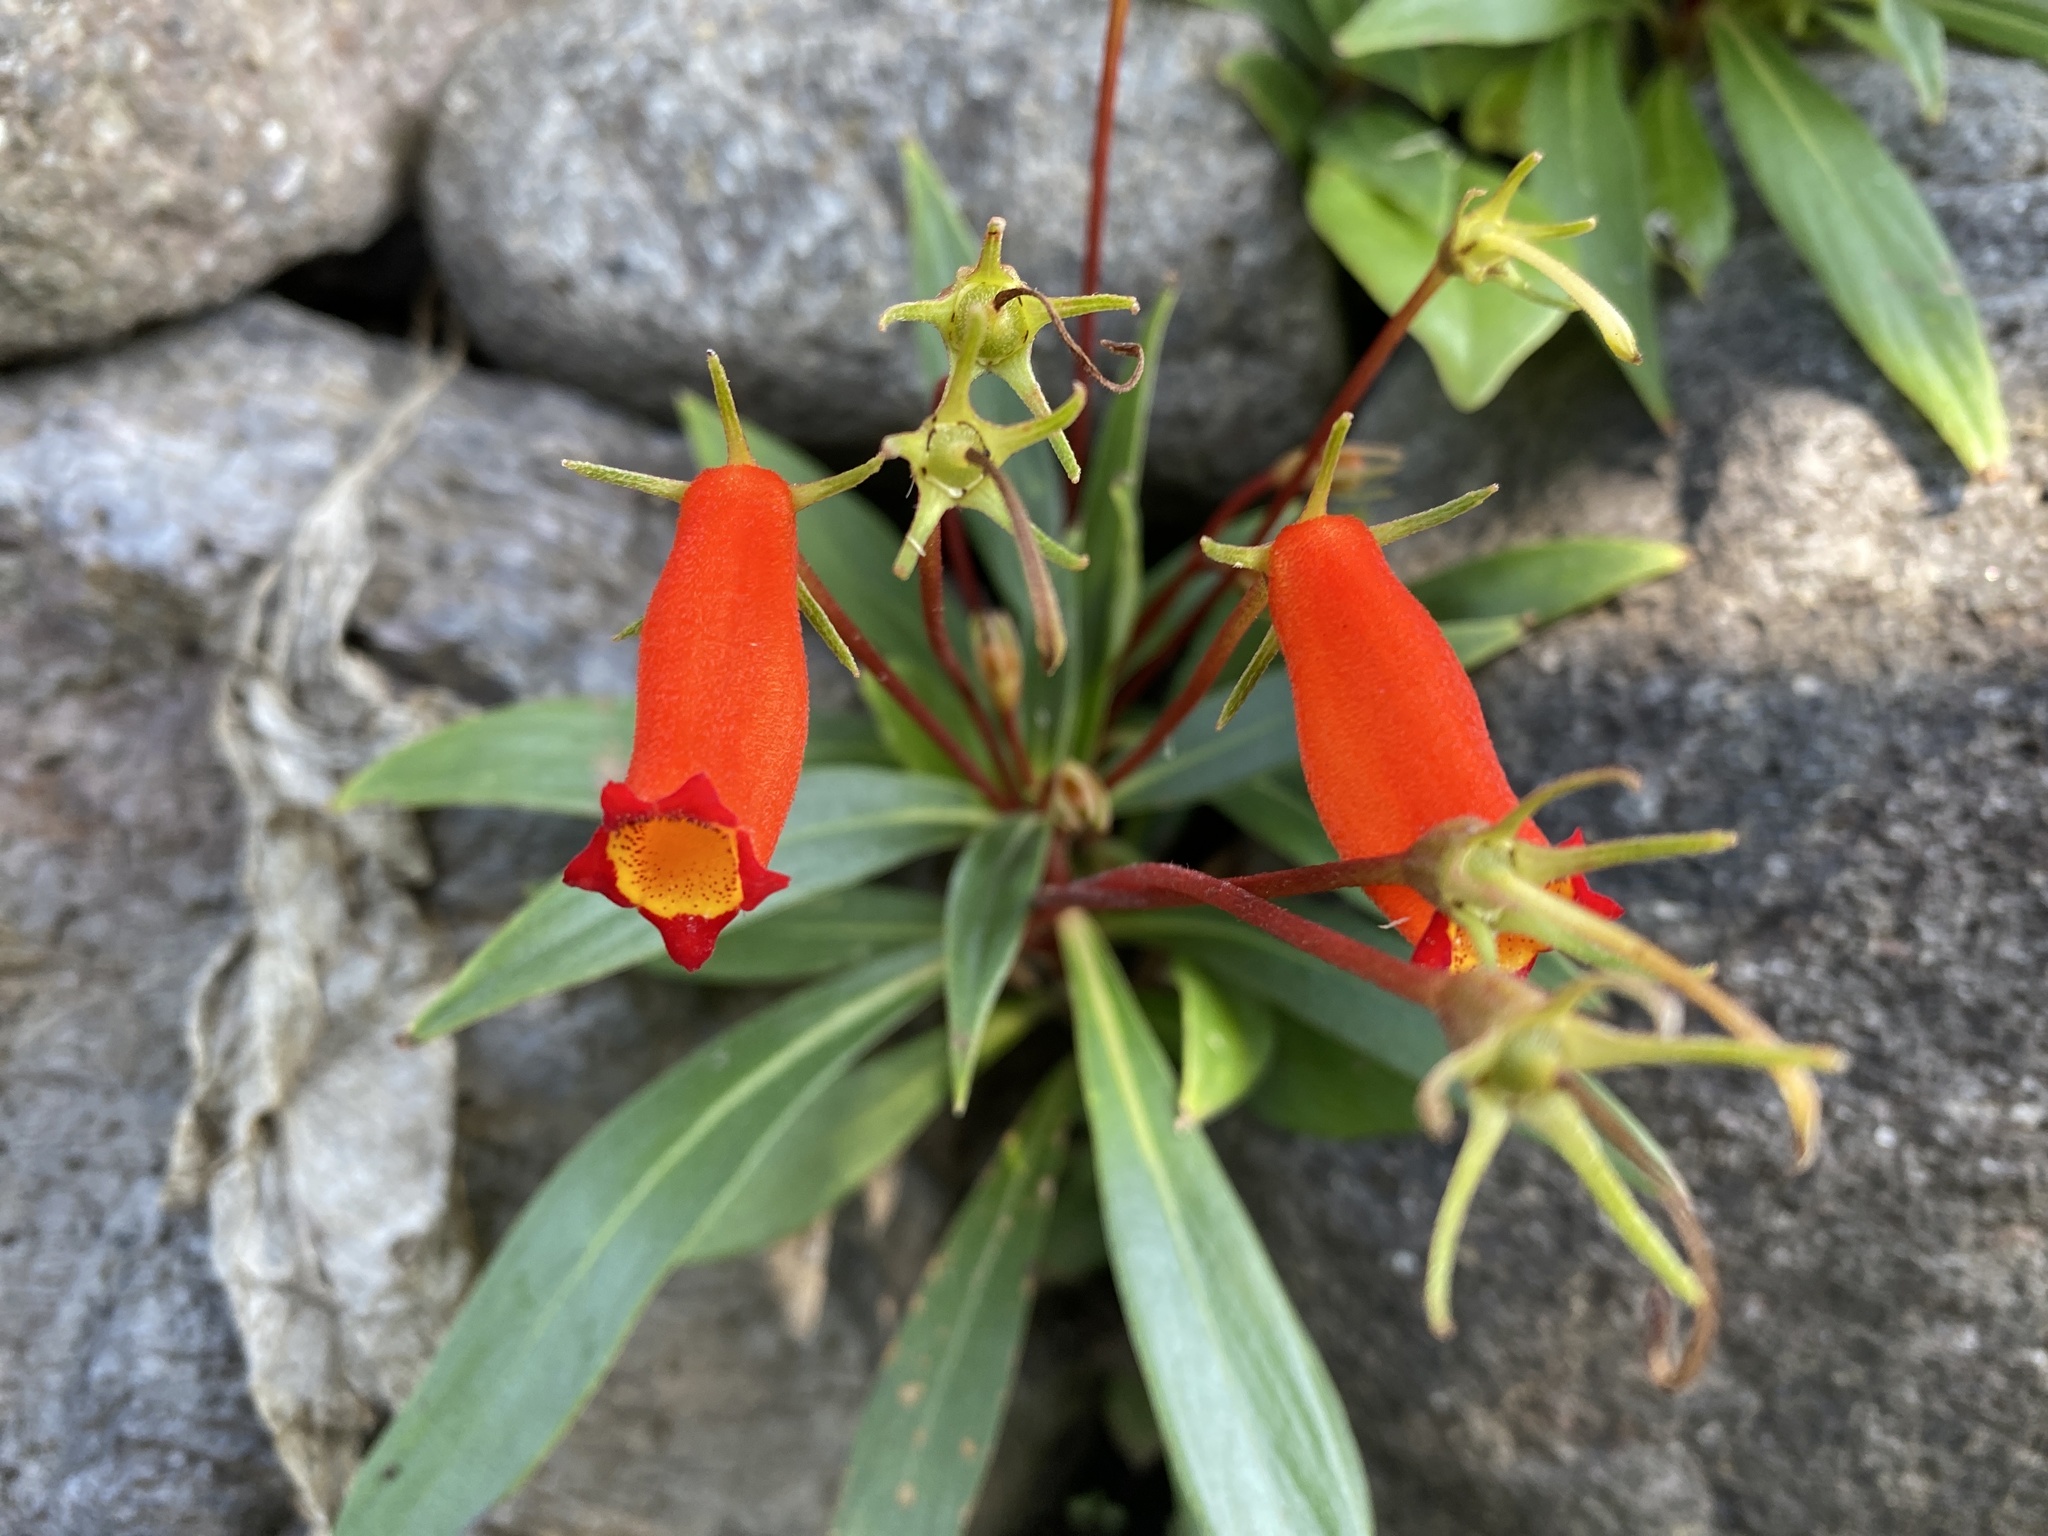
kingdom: Plantae
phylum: Tracheophyta
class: Magnoliopsida
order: Lamiales
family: Gesneriaceae
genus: Seemannia
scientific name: Seemannia sylvatica
